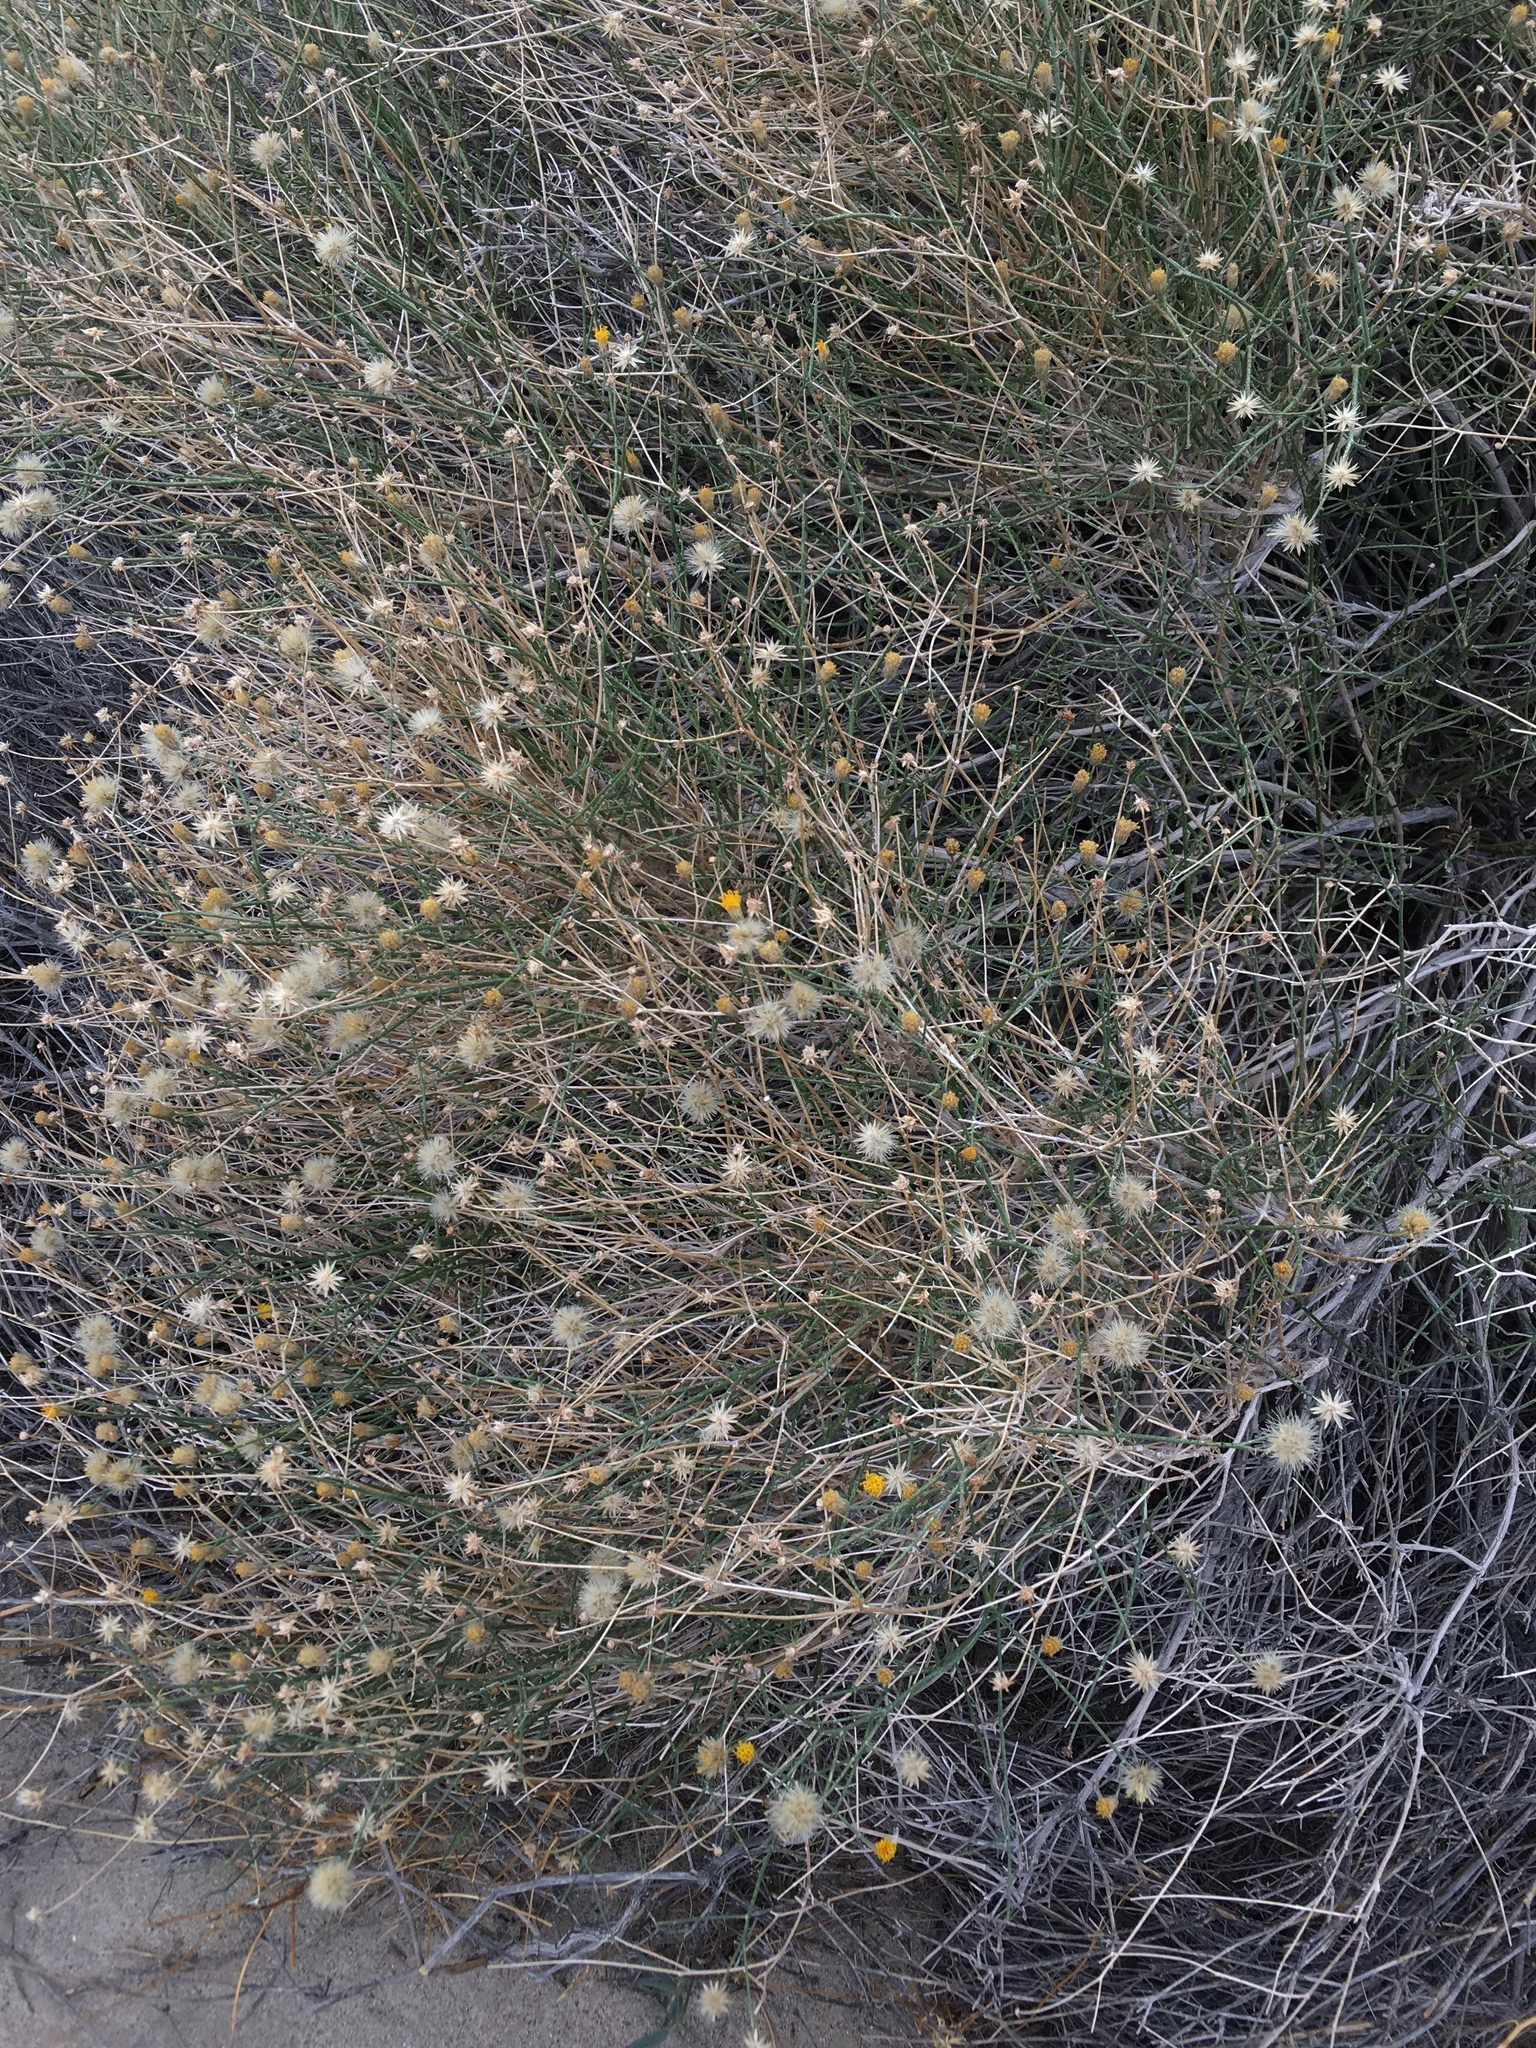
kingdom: Plantae
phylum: Tracheophyta
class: Magnoliopsida
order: Asterales
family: Asteraceae
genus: Bebbia
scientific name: Bebbia juncea
